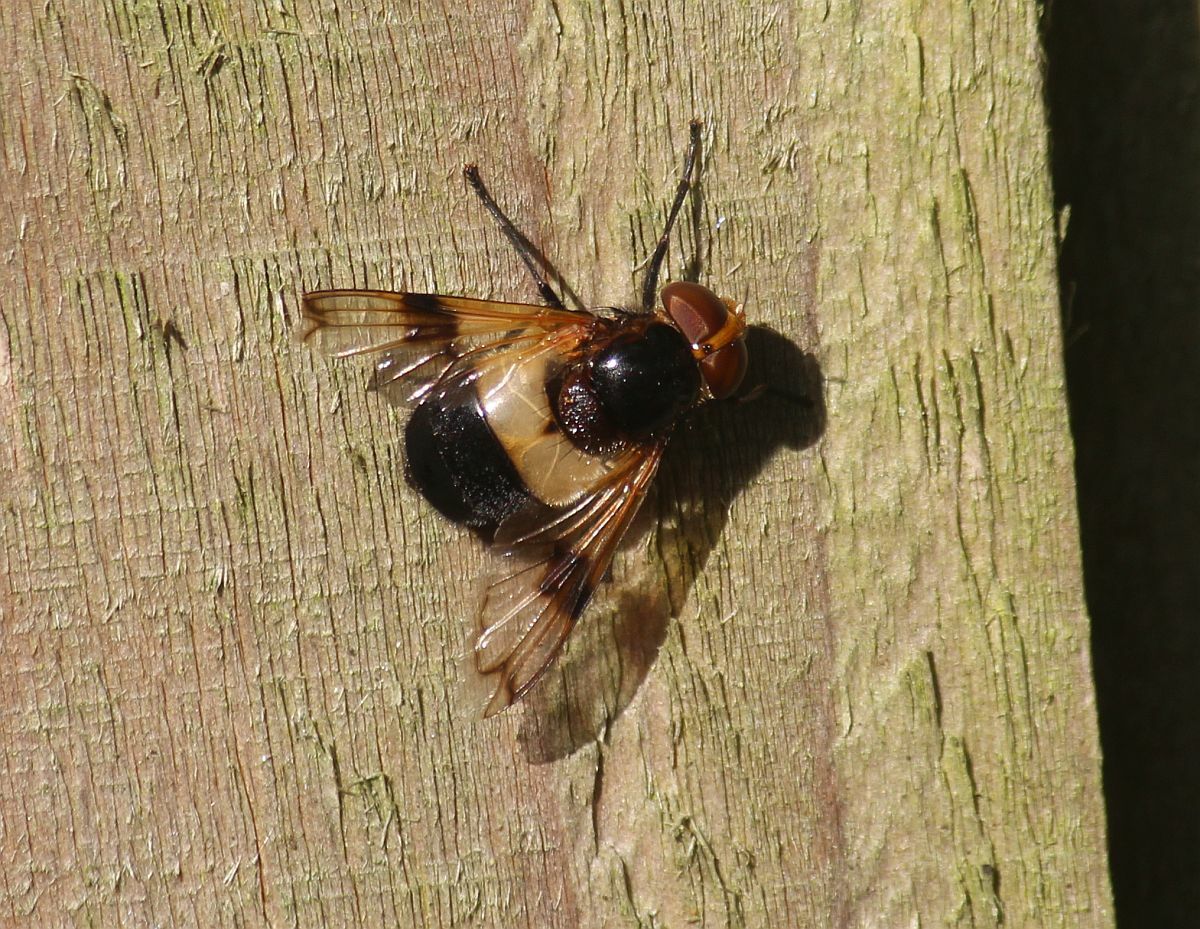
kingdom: Animalia
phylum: Arthropoda
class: Insecta
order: Diptera
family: Syrphidae
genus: Volucella
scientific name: Volucella pellucens
